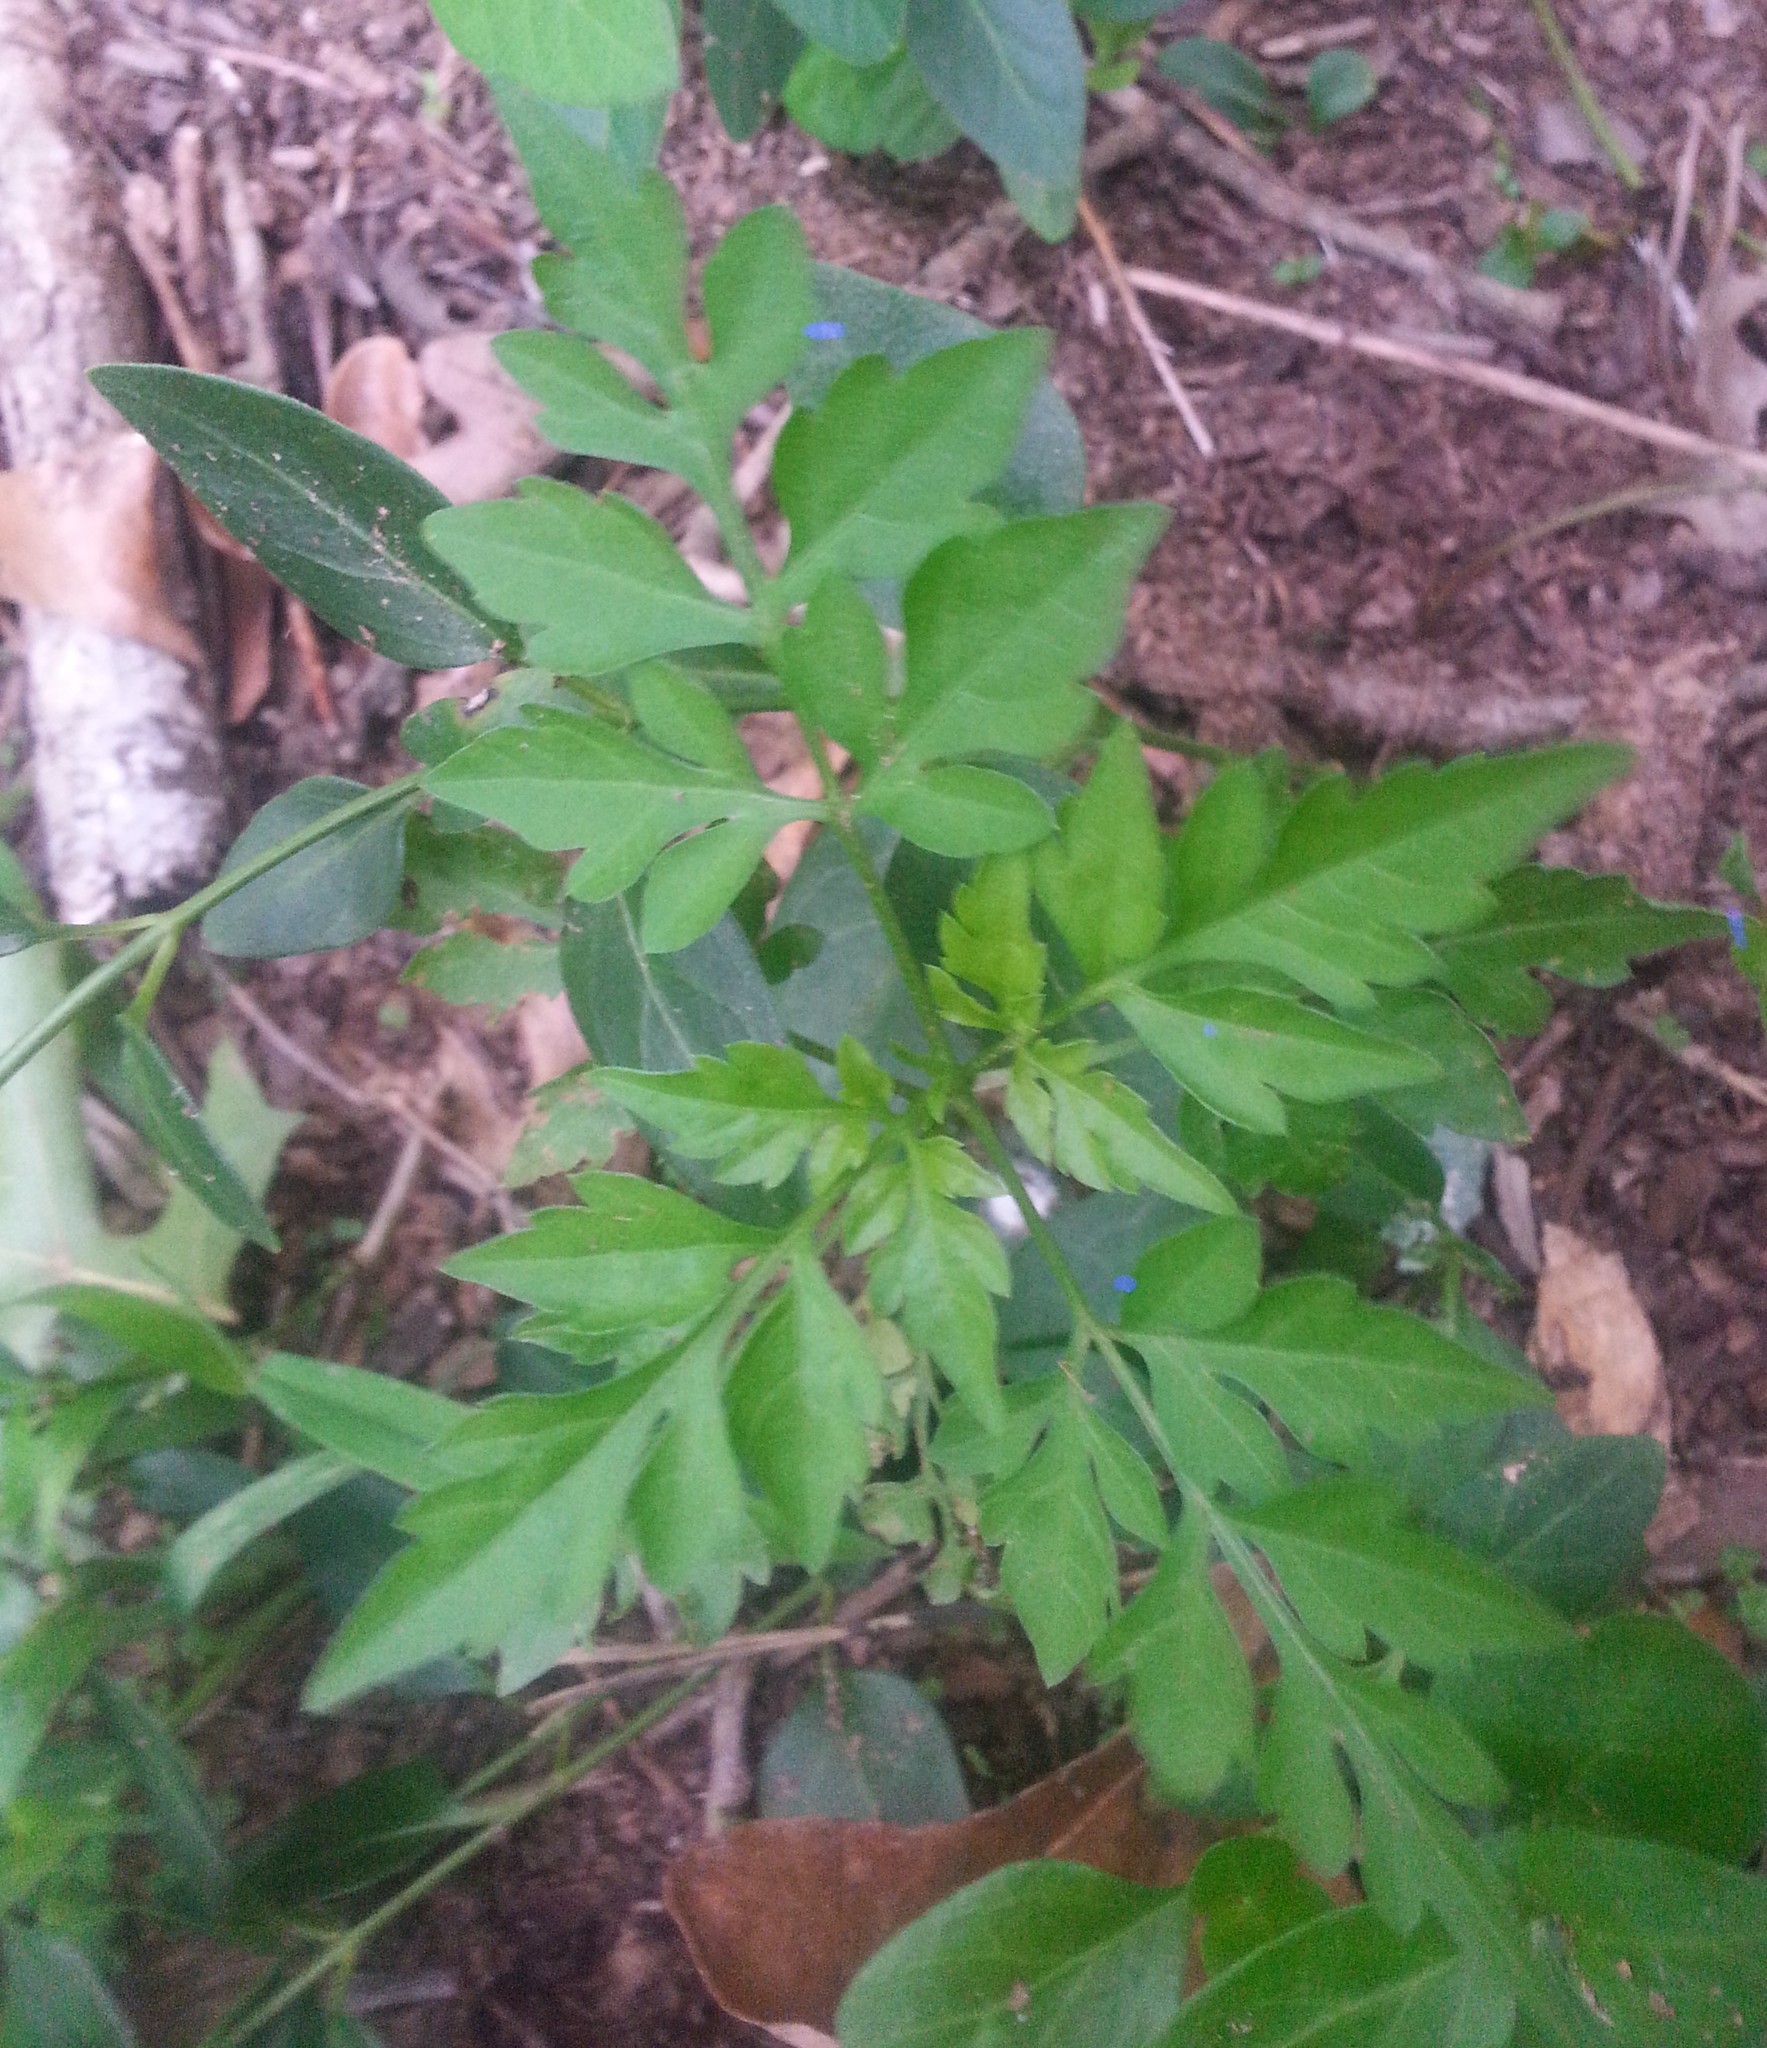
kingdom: Plantae
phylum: Tracheophyta
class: Magnoliopsida
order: Asterales
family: Asteraceae
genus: Bidens
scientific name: Bidens bipinnata
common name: Spanish-needles
